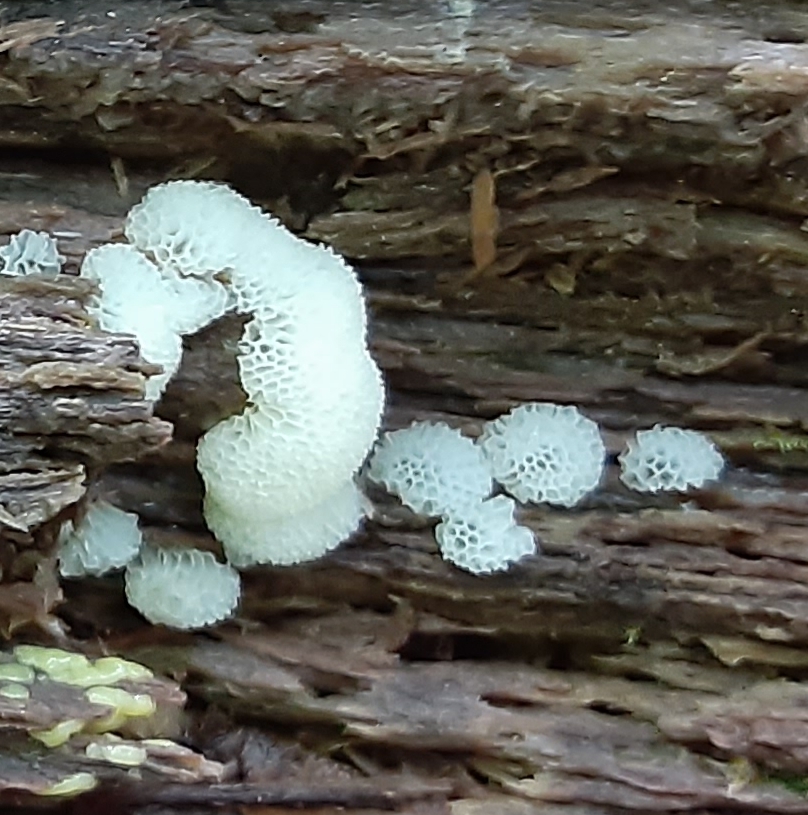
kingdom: Protozoa
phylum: Mycetozoa
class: Protosteliomycetes
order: Ceratiomyxales
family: Ceratiomyxaceae
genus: Ceratiomyxa
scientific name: Ceratiomyxa fruticulosa
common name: Honeycomb coral slime mold
